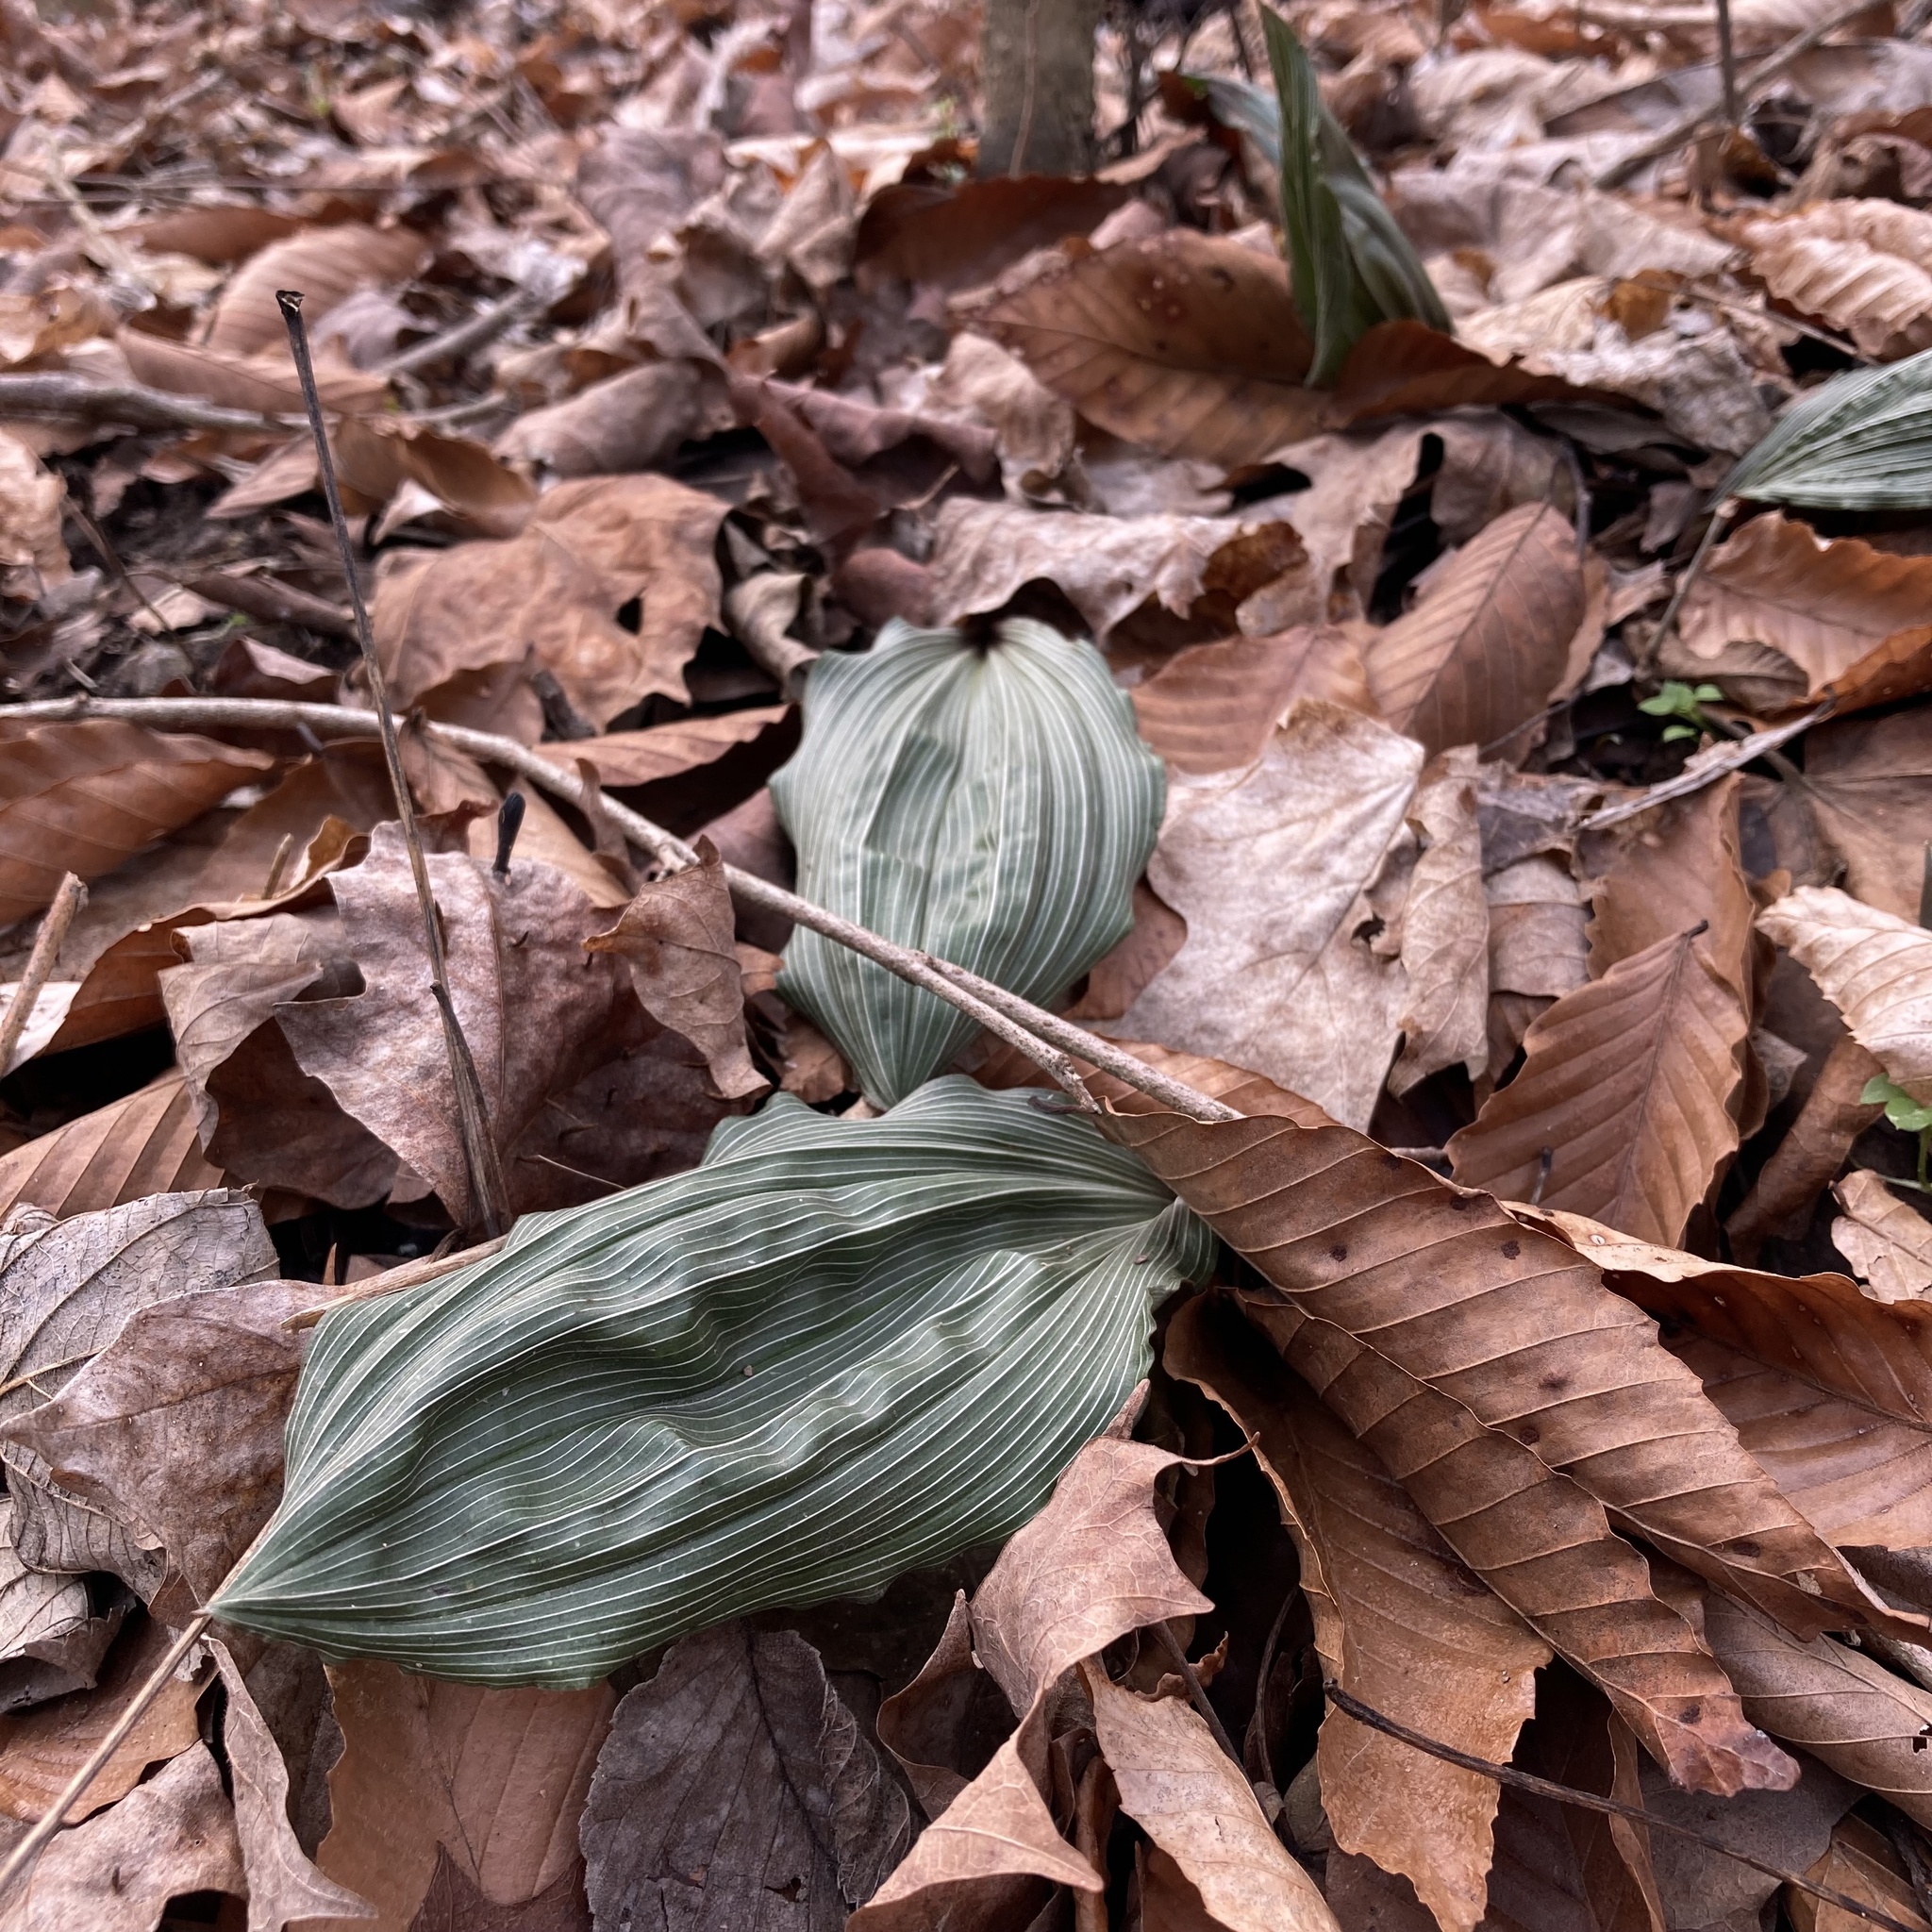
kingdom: Plantae
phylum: Tracheophyta
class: Liliopsida
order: Asparagales
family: Orchidaceae
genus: Aplectrum
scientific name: Aplectrum hyemale
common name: Adam-and-eve
